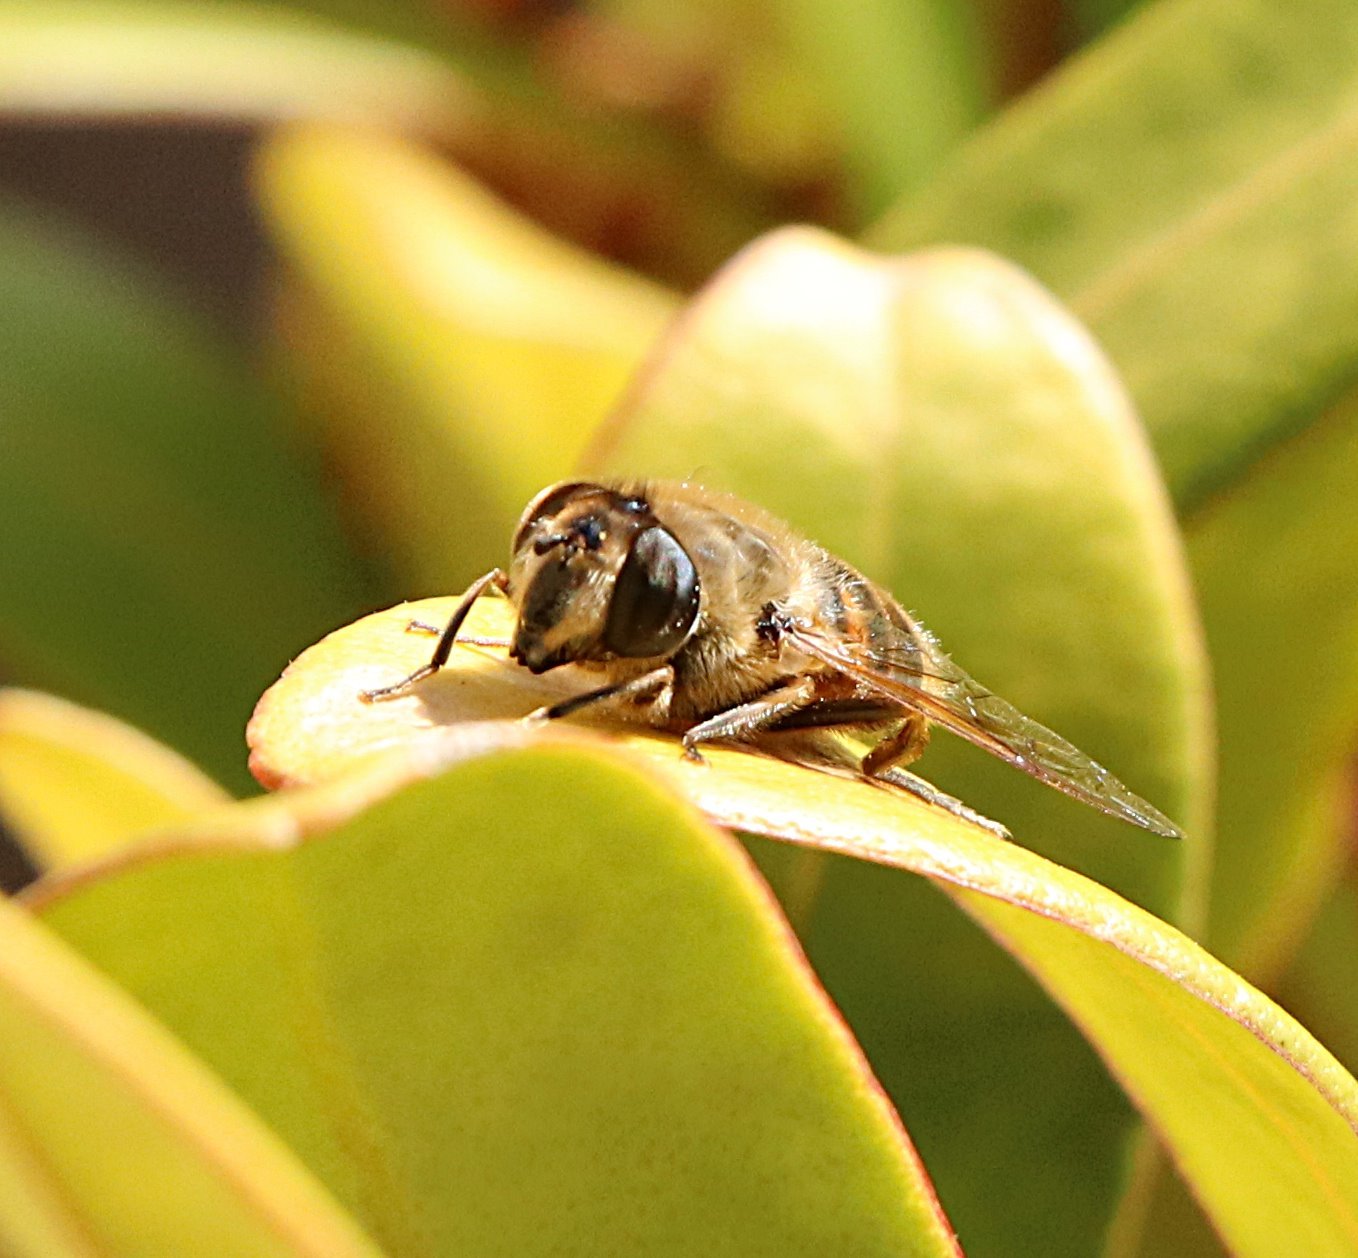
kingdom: Animalia
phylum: Arthropoda
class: Insecta
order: Diptera
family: Syrphidae
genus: Eristalis
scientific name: Eristalis tenax
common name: Drone fly
